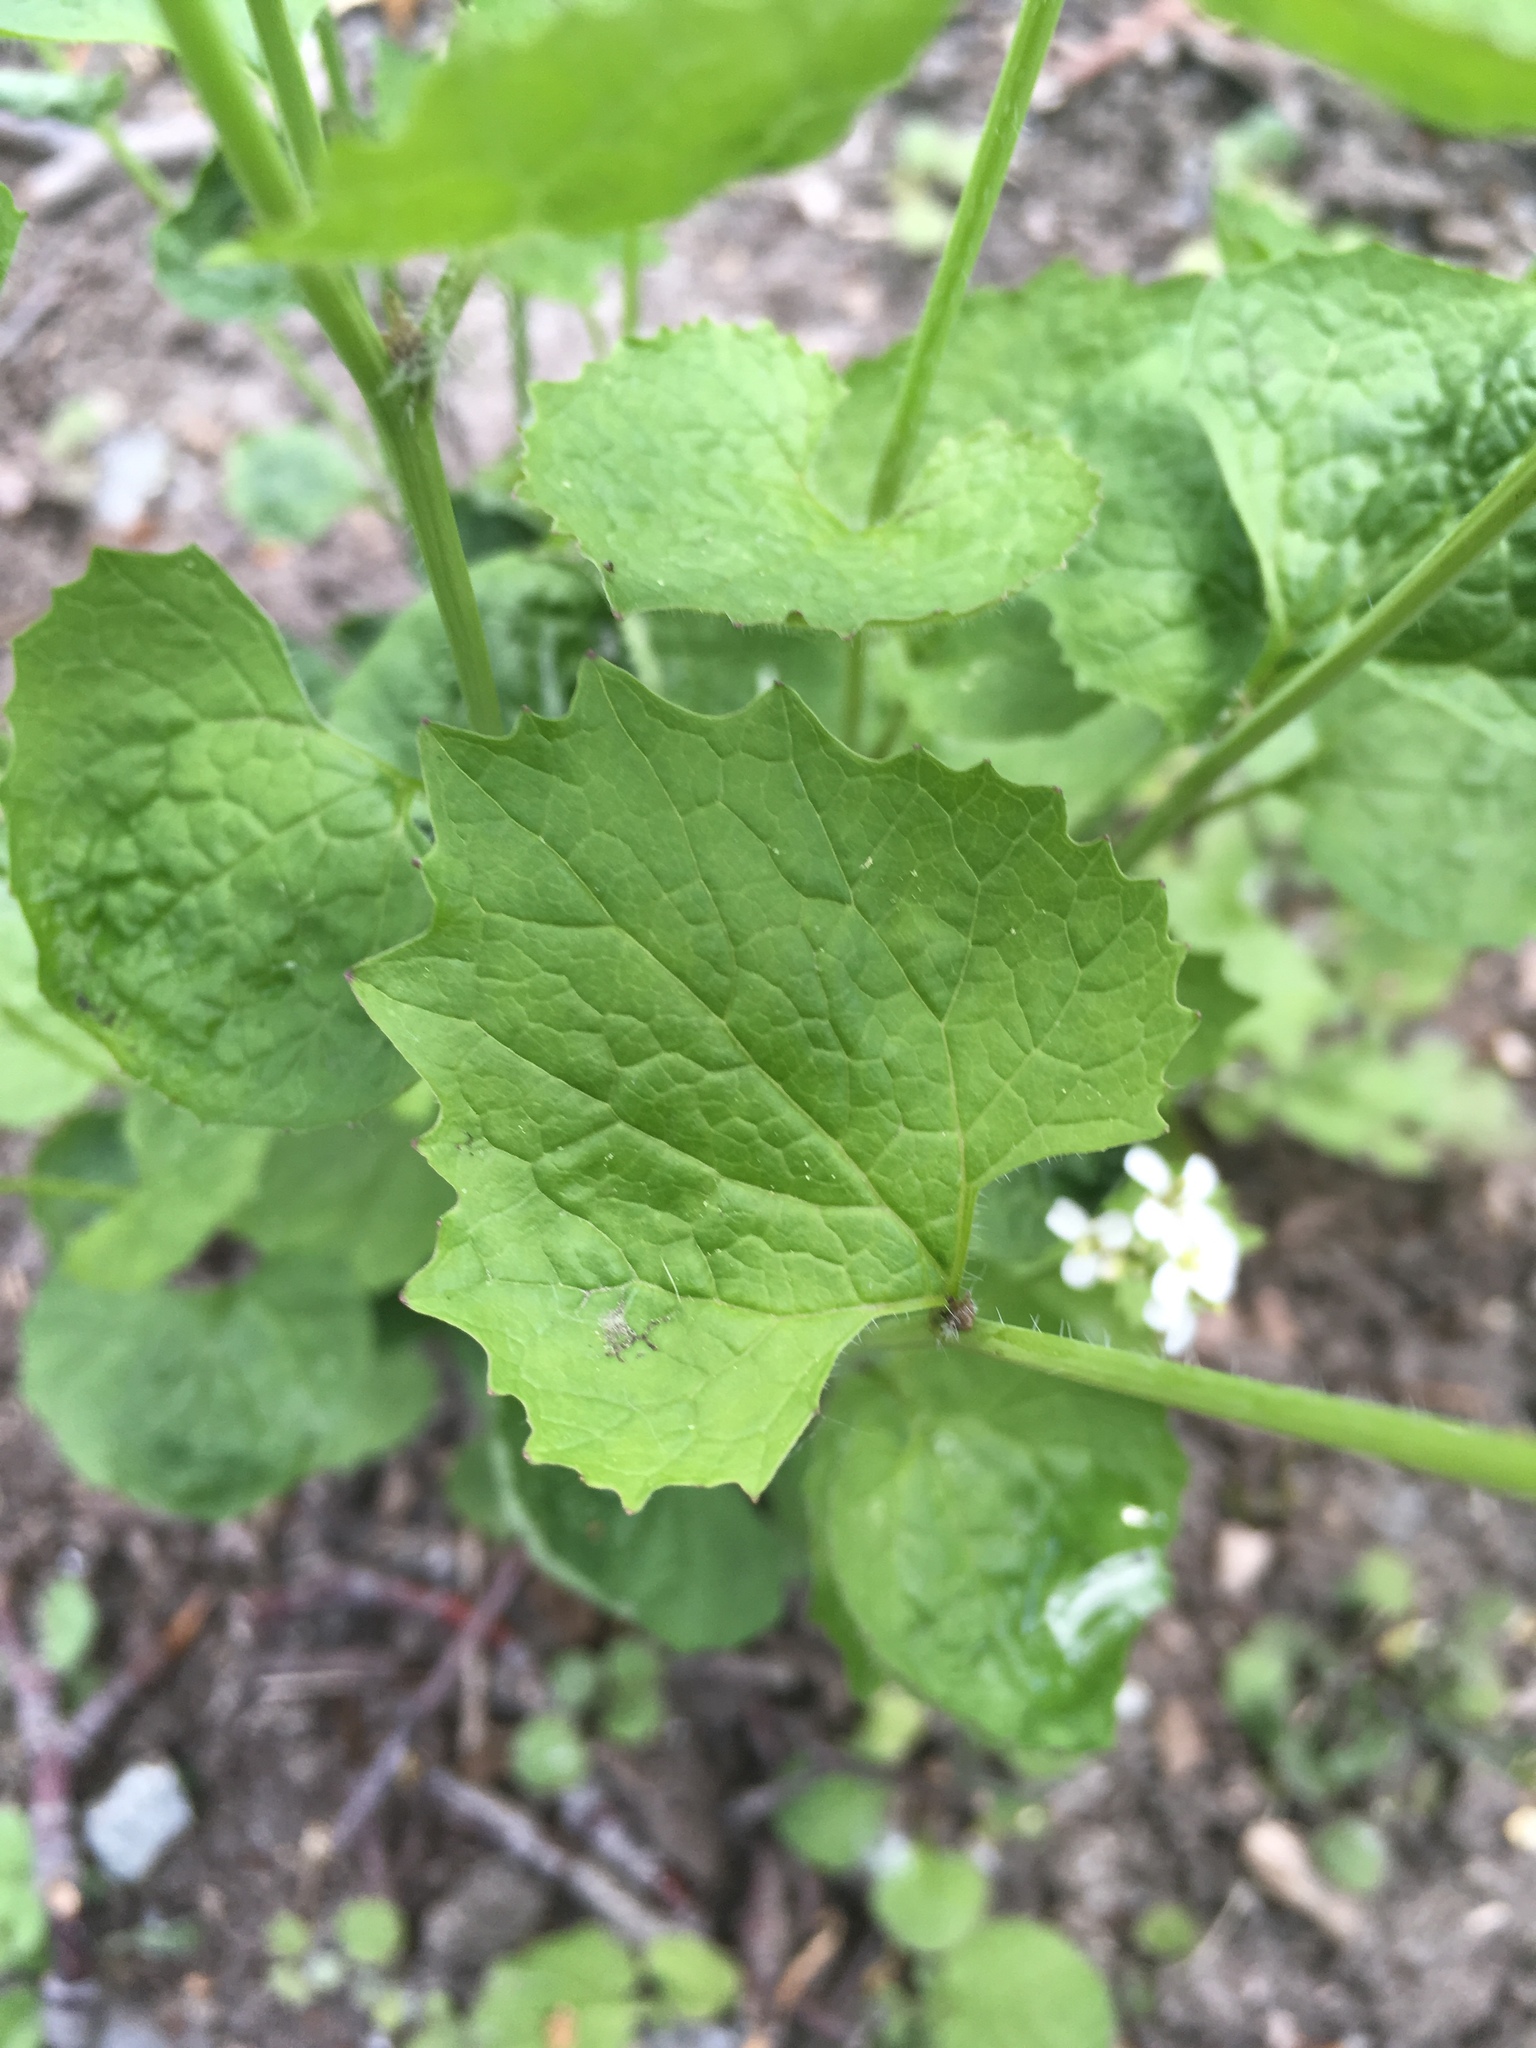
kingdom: Plantae
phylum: Tracheophyta
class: Magnoliopsida
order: Brassicales
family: Brassicaceae
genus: Alliaria
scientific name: Alliaria petiolata
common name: Garlic mustard
